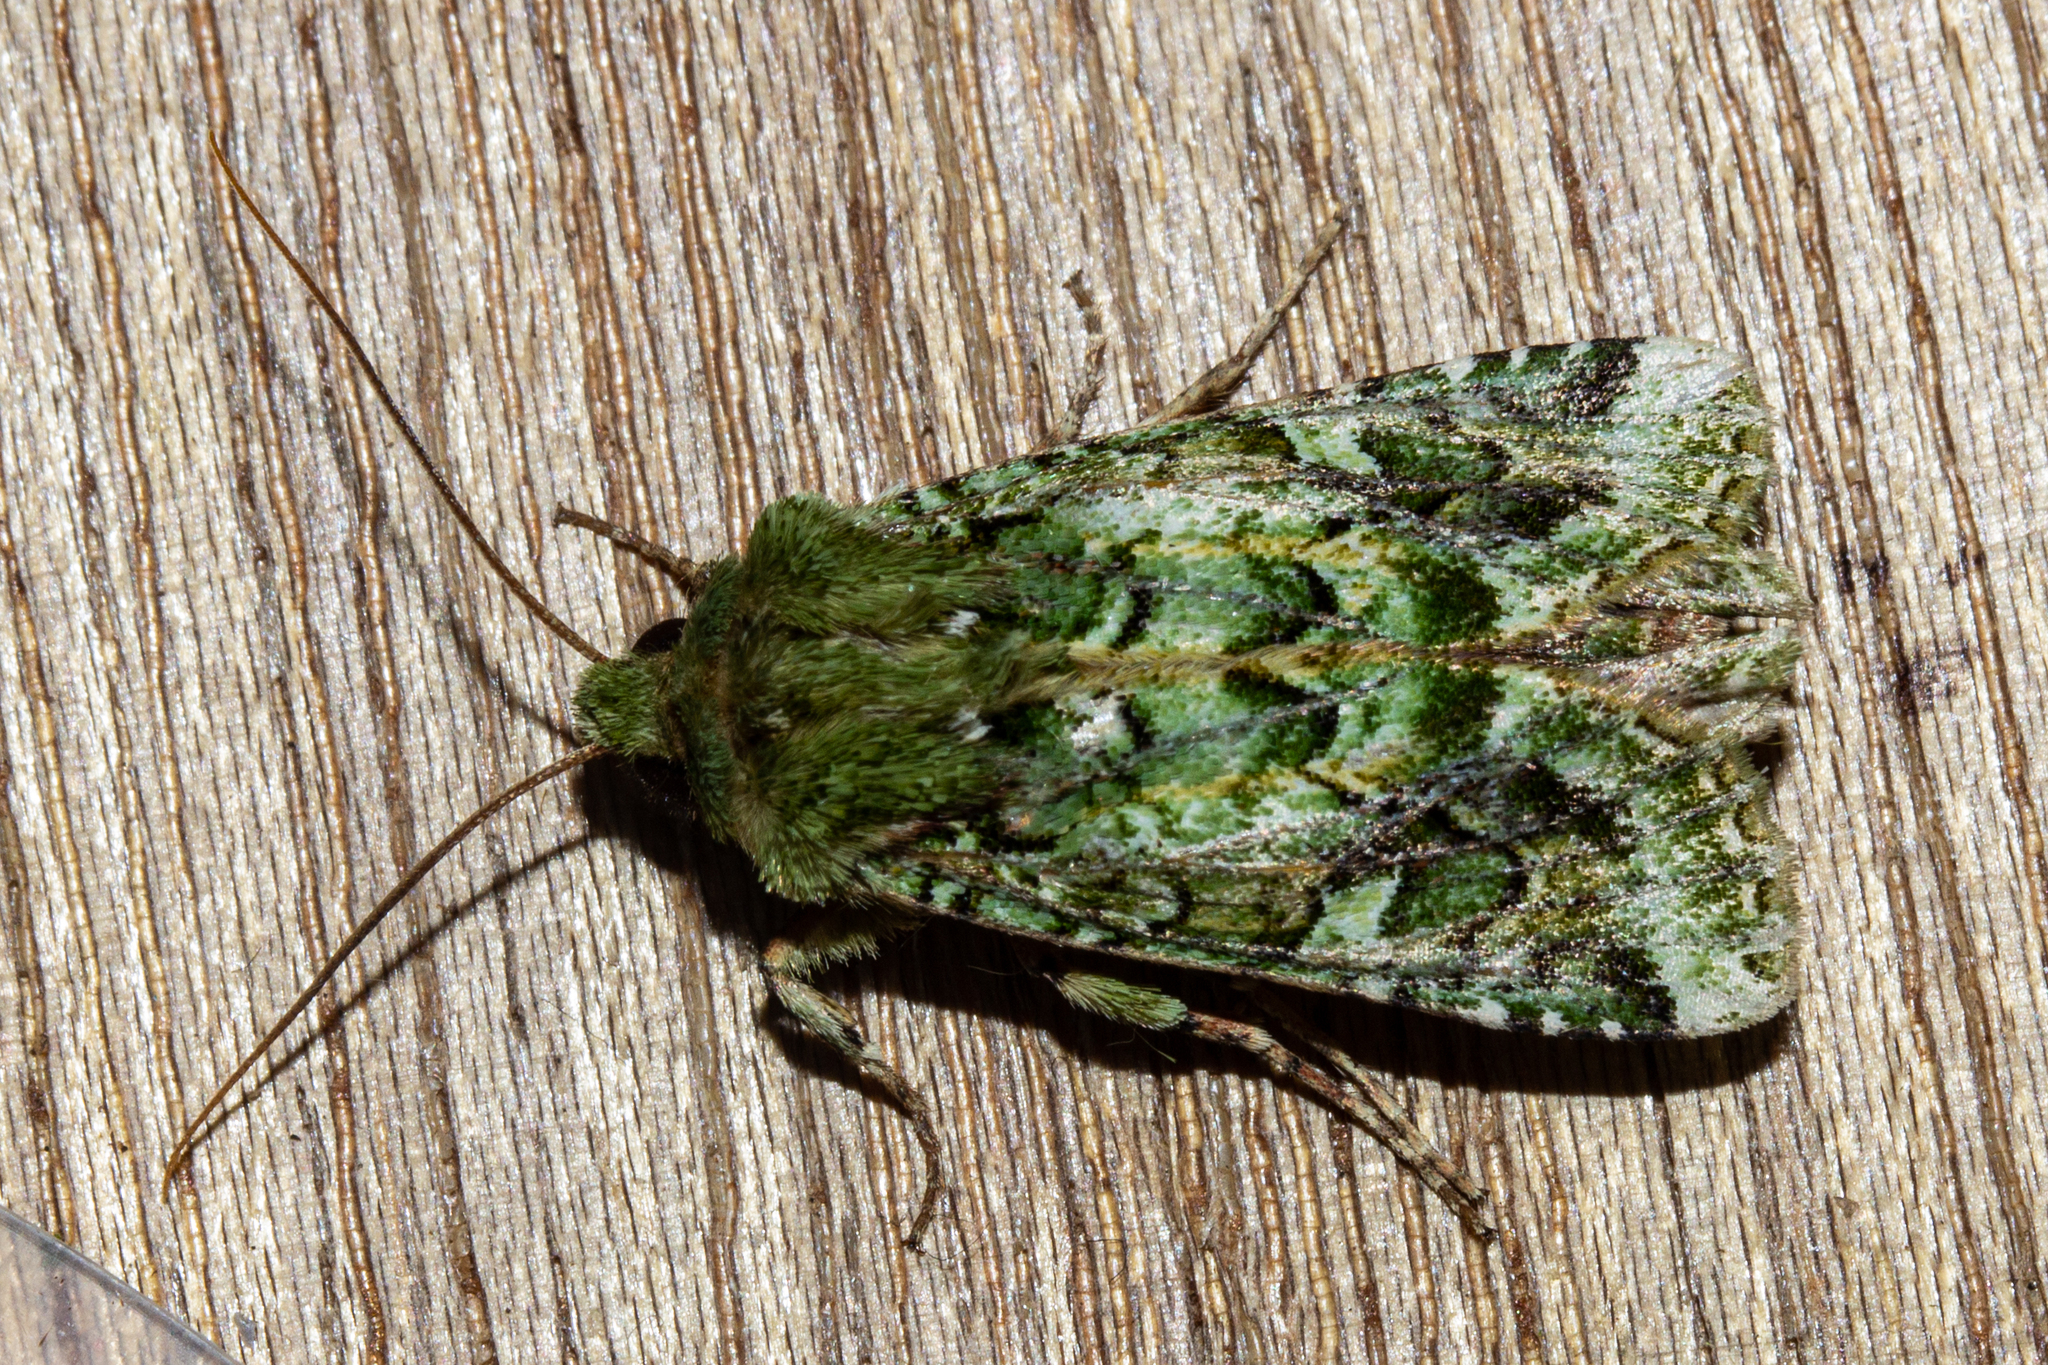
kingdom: Animalia
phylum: Arthropoda
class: Insecta
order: Lepidoptera
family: Noctuidae
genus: Feredayia
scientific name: Feredayia grammosa
